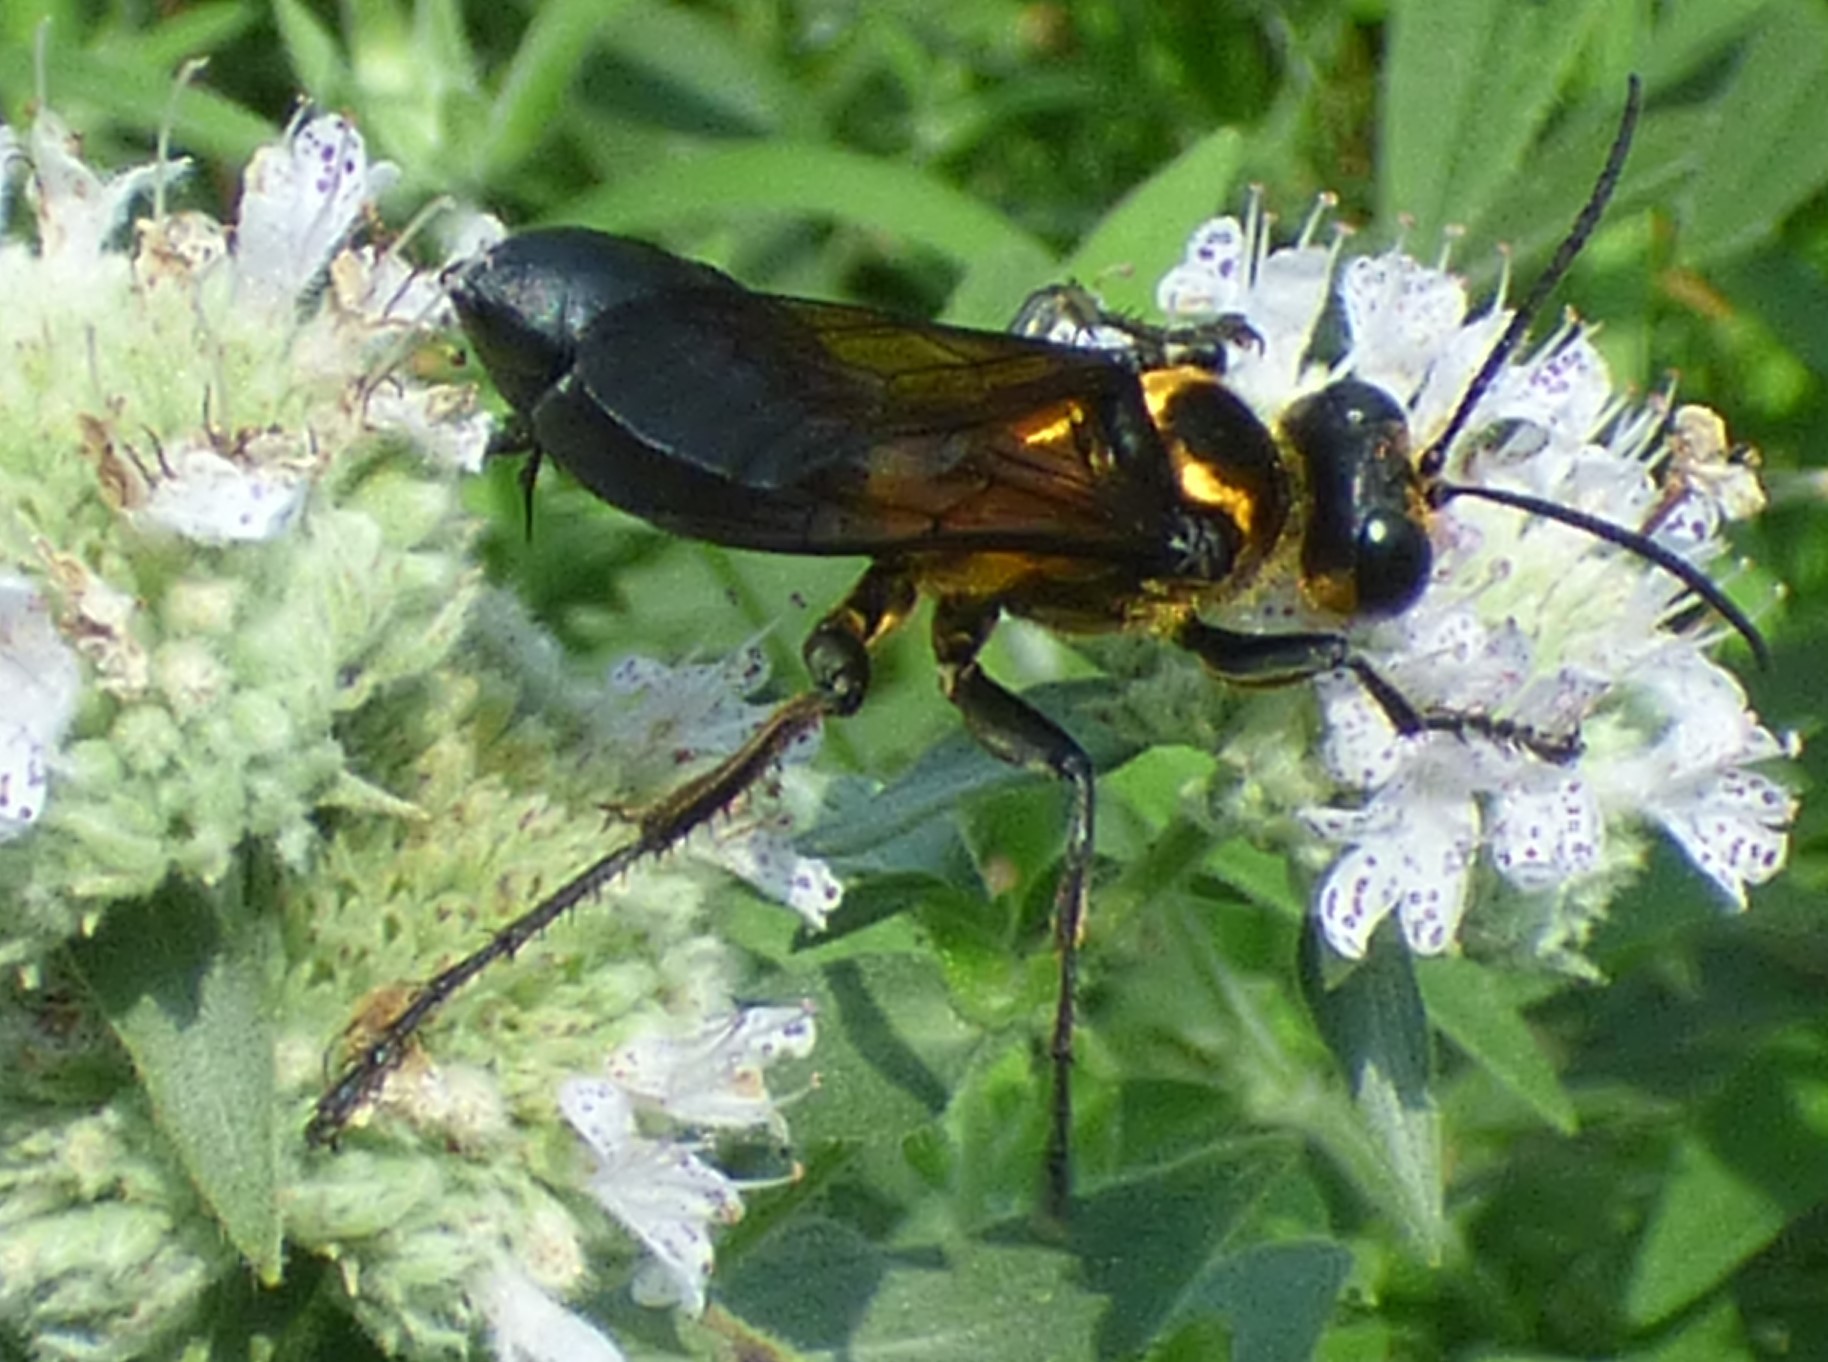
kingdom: Animalia
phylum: Arthropoda
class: Insecta
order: Hymenoptera
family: Sphecidae
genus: Sphex
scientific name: Sphex habenus
